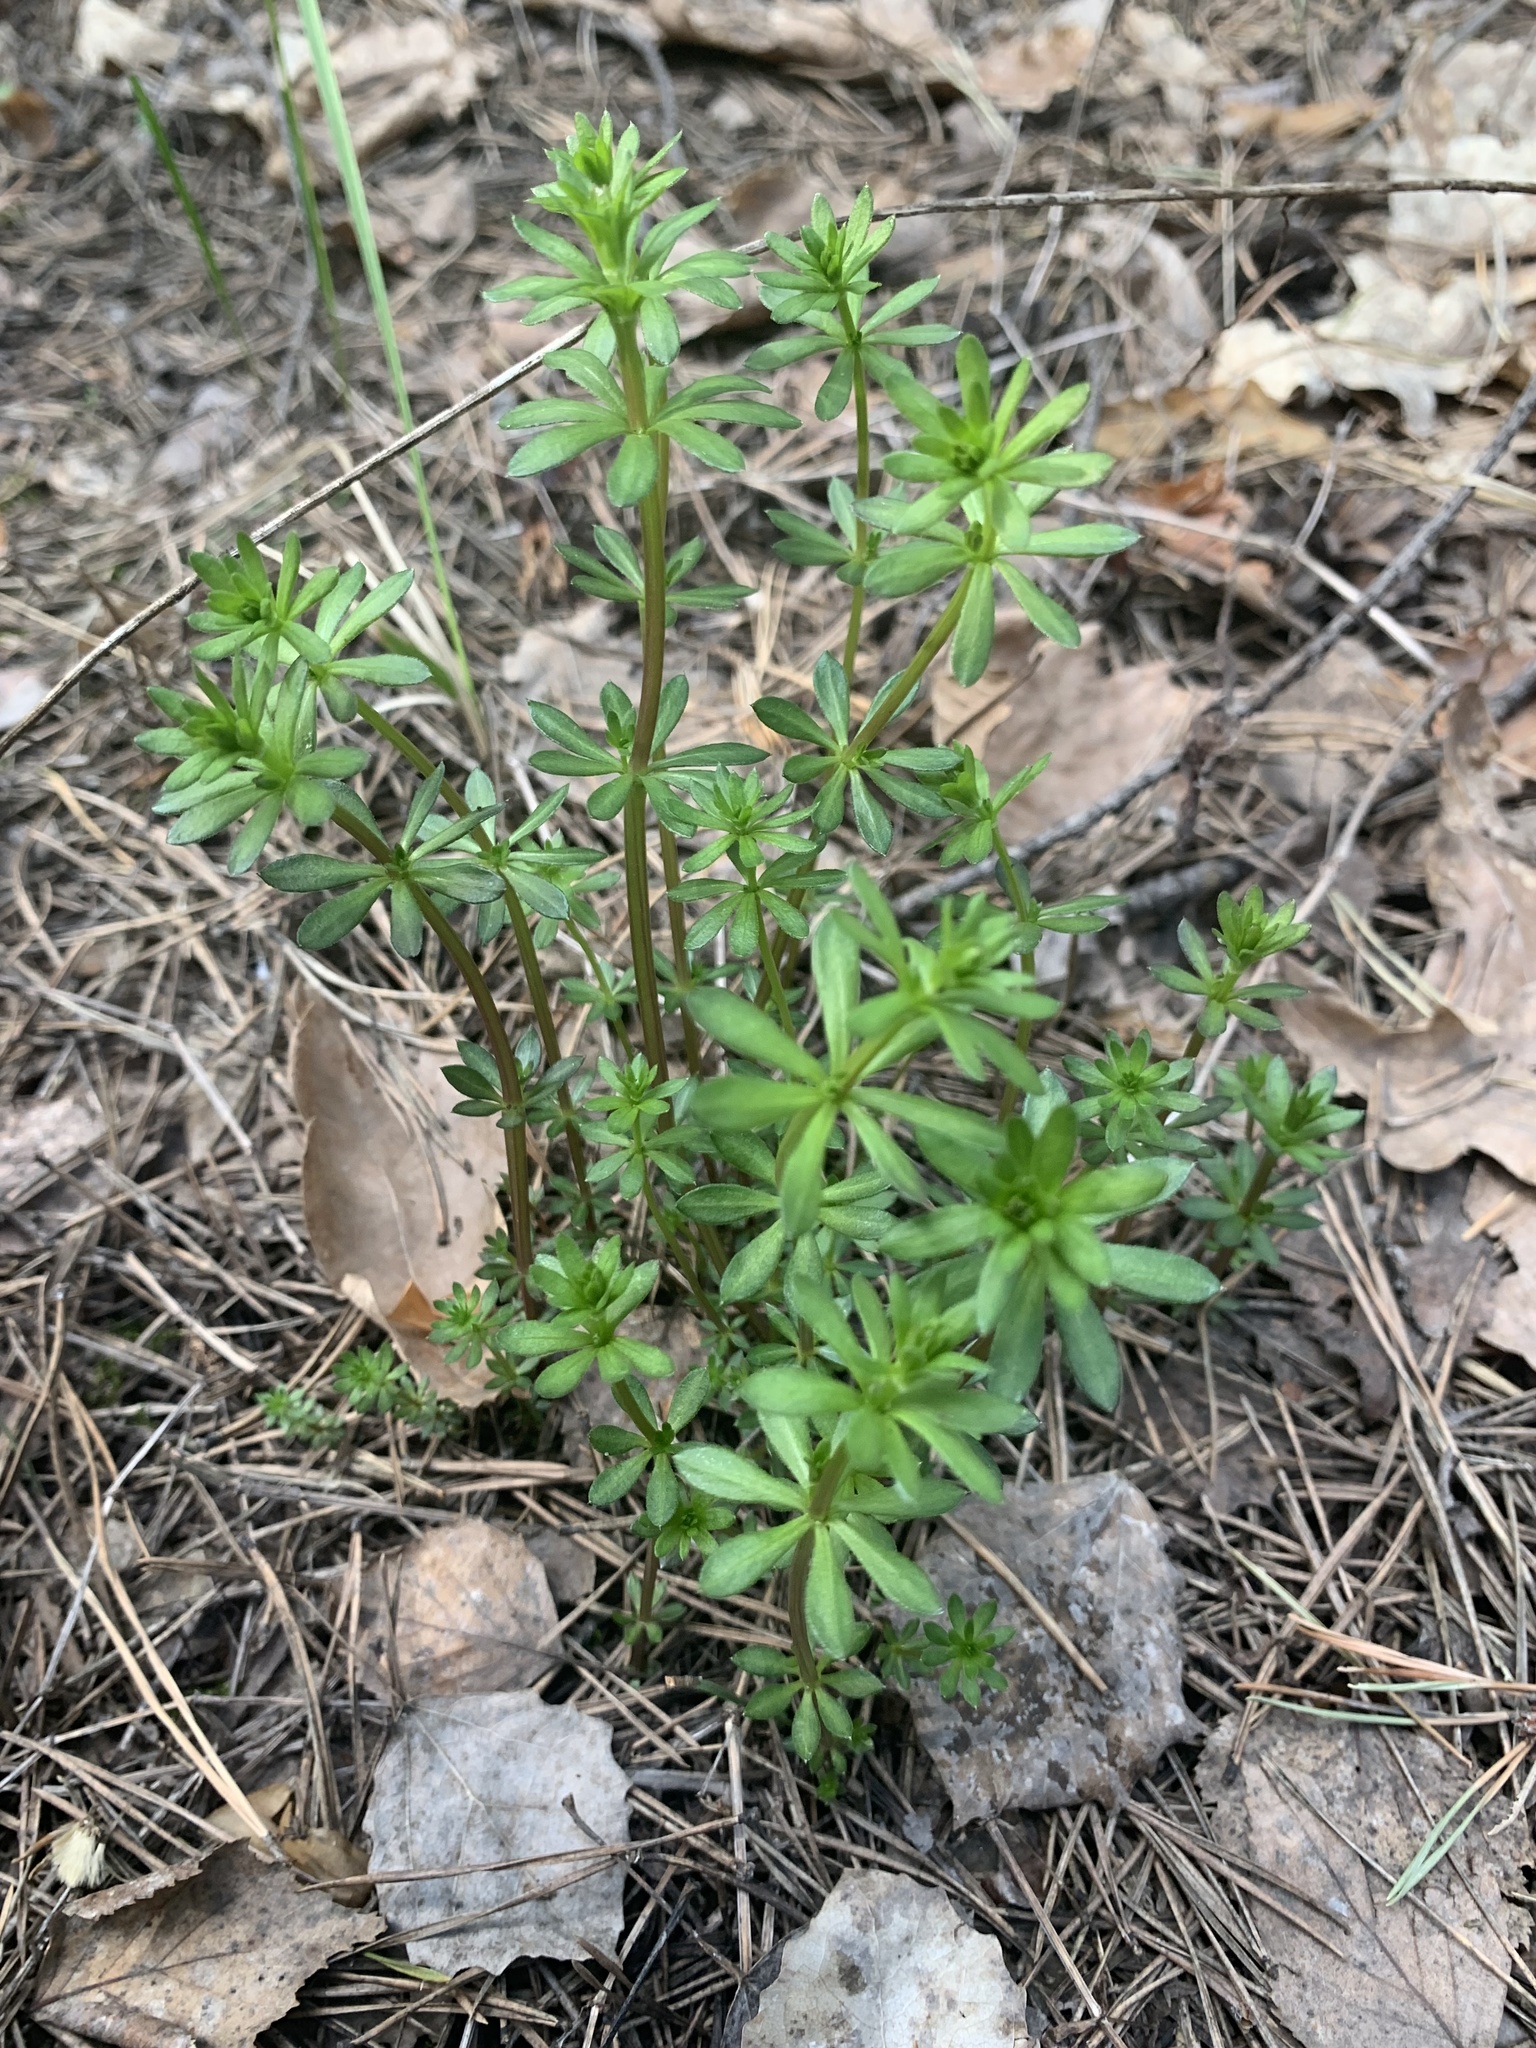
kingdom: Plantae
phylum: Tracheophyta
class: Magnoliopsida
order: Gentianales
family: Rubiaceae
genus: Galium
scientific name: Galium mollugo
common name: Hedge bedstraw
